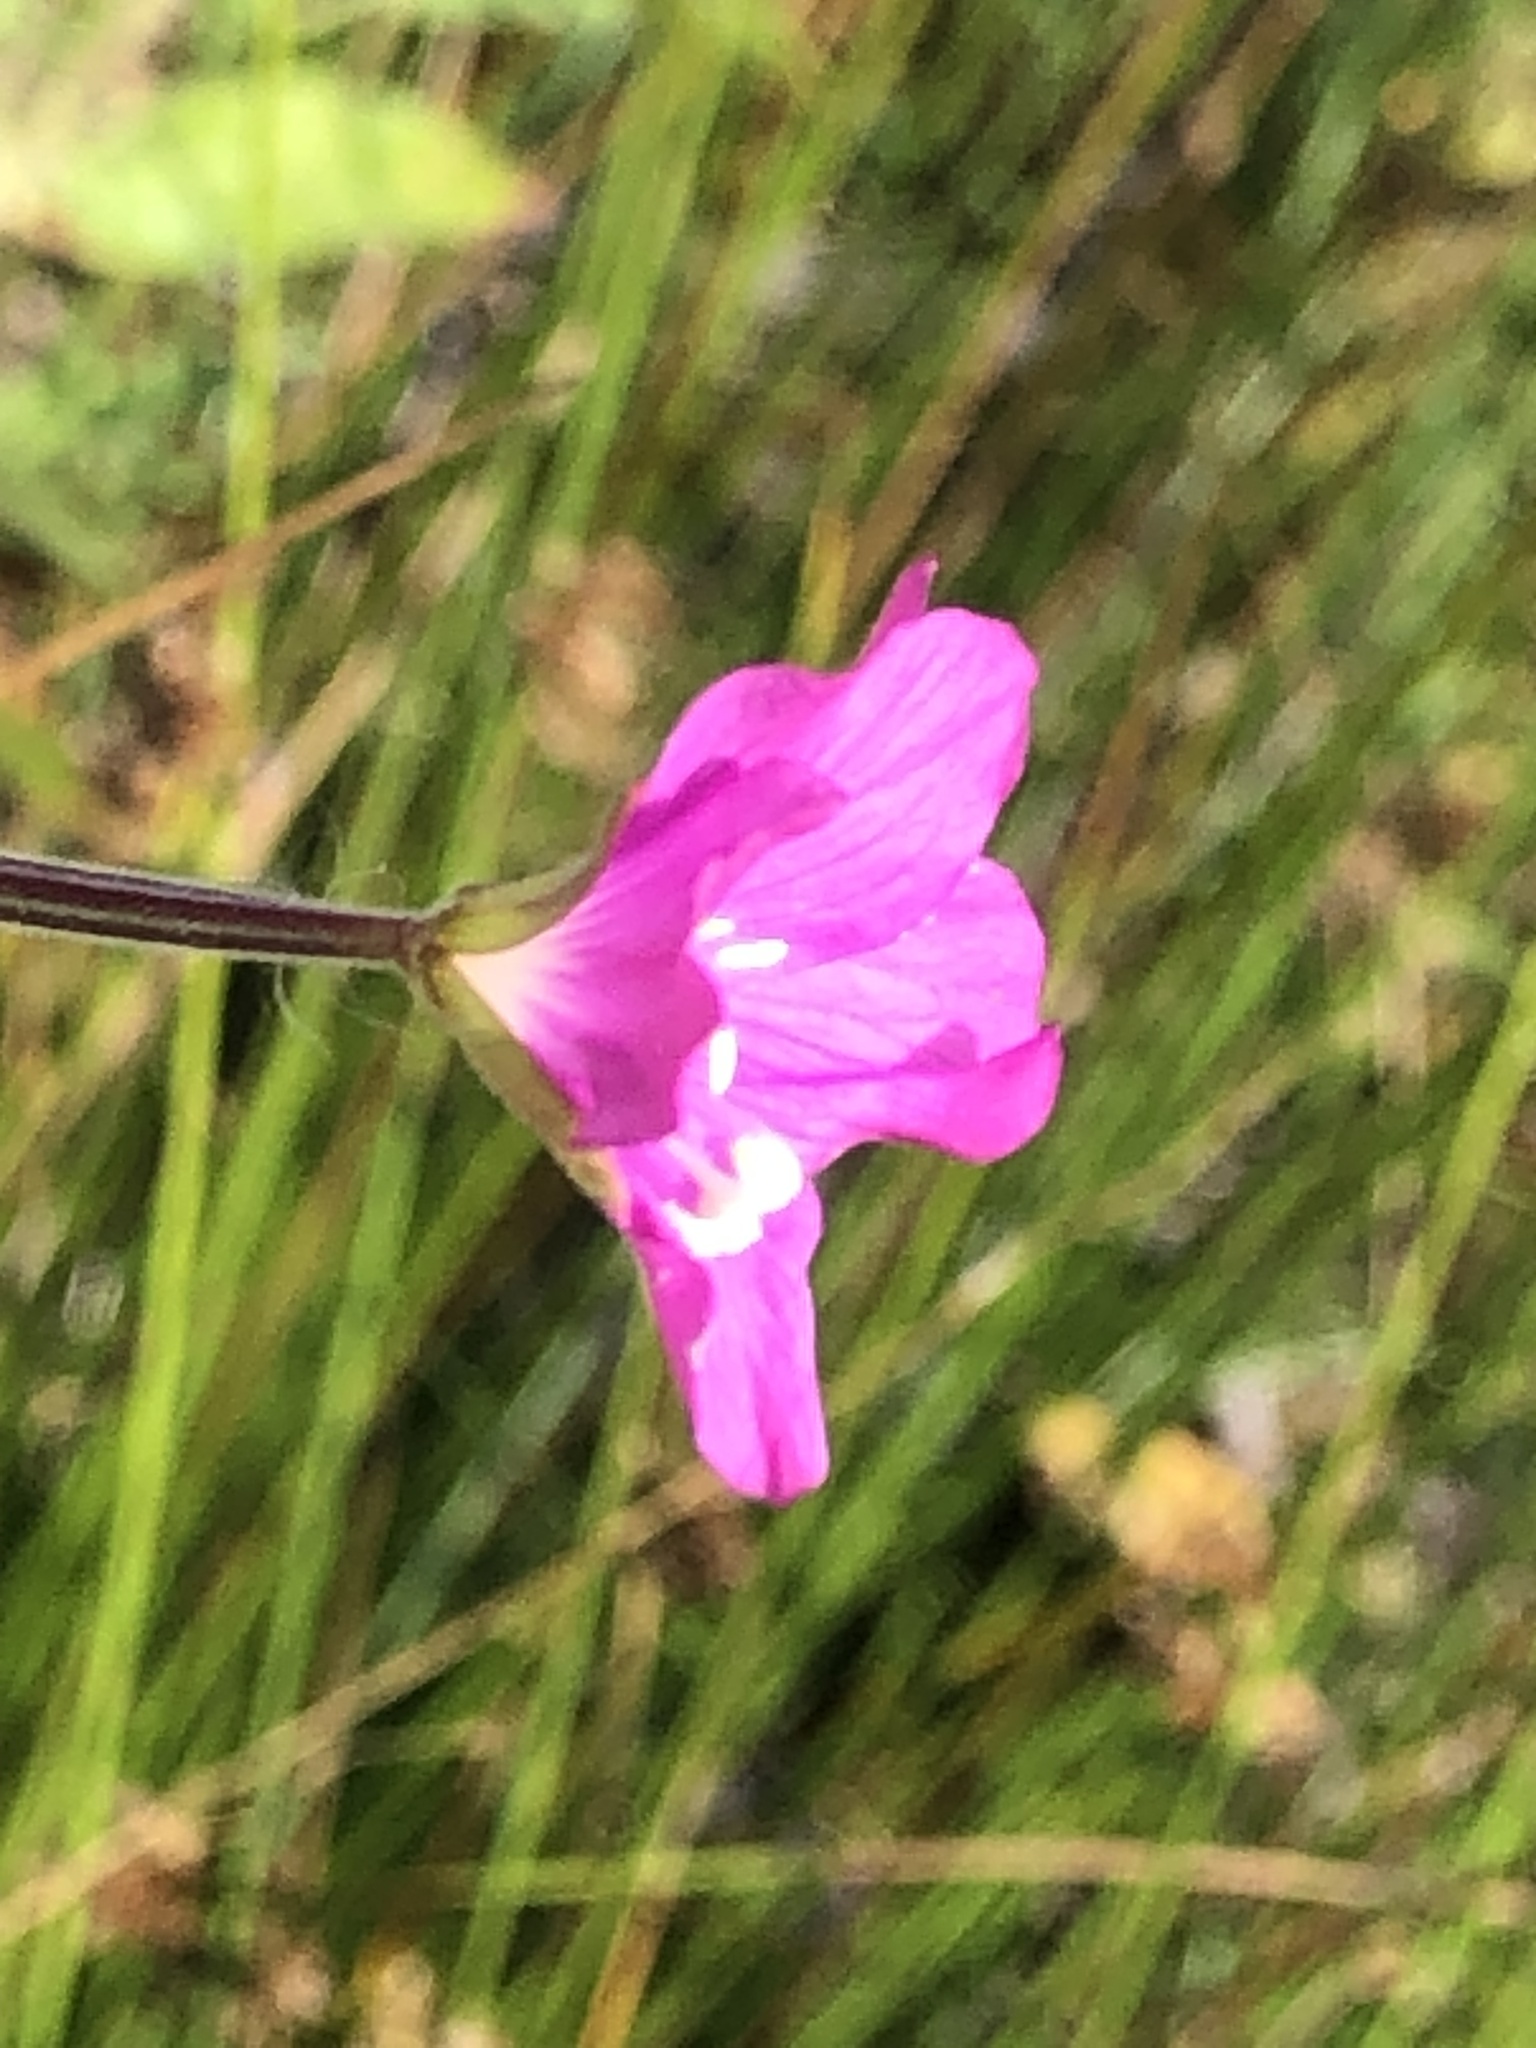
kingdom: Plantae
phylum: Tracheophyta
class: Magnoliopsida
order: Myrtales
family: Onagraceae
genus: Epilobium
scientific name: Epilobium hirsutum
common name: Great willowherb
